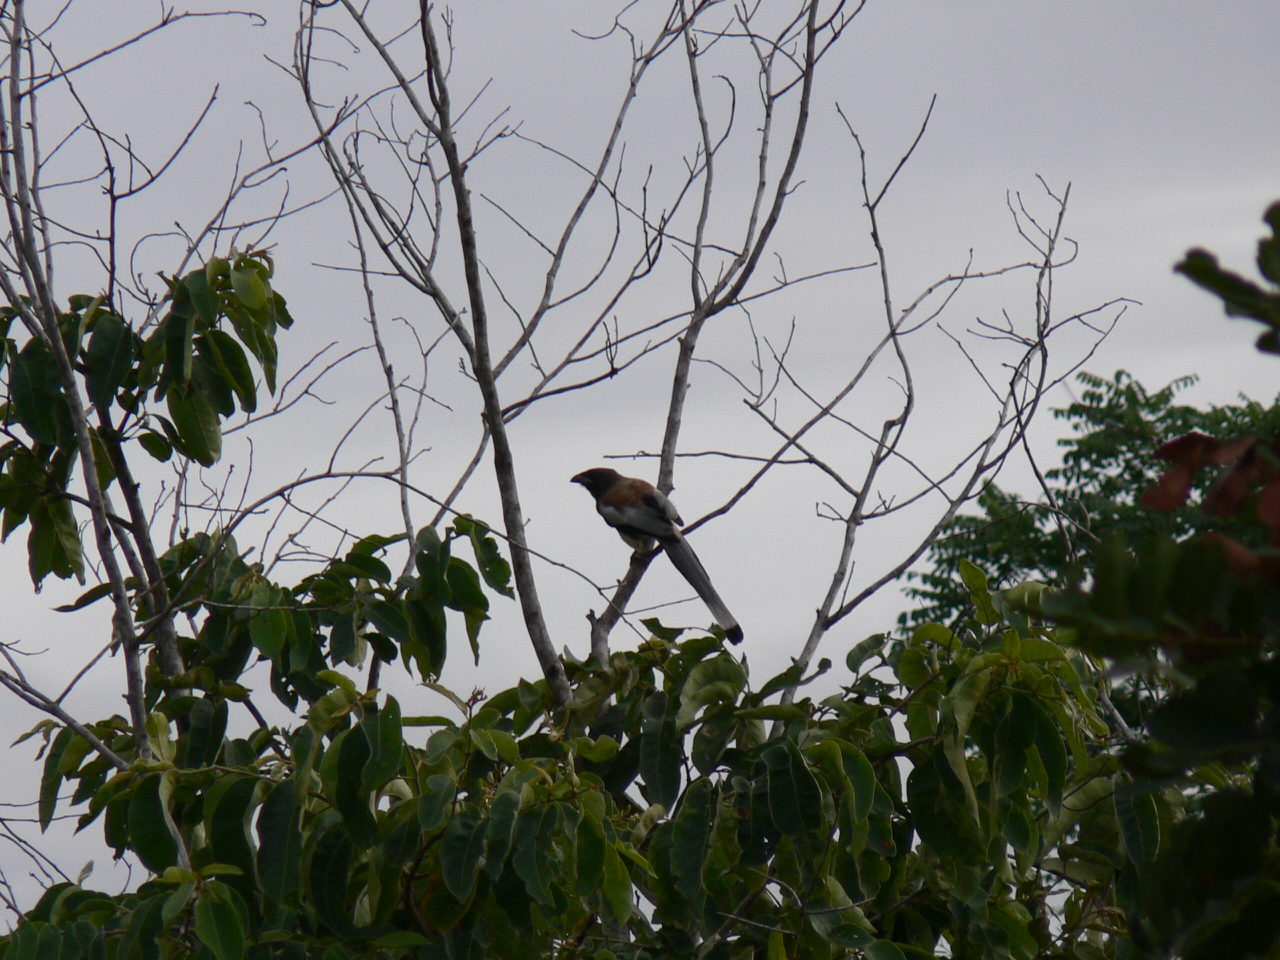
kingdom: Animalia
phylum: Chordata
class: Aves
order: Passeriformes
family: Corvidae
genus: Dendrocitta
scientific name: Dendrocitta vagabunda
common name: Rufous treepie
